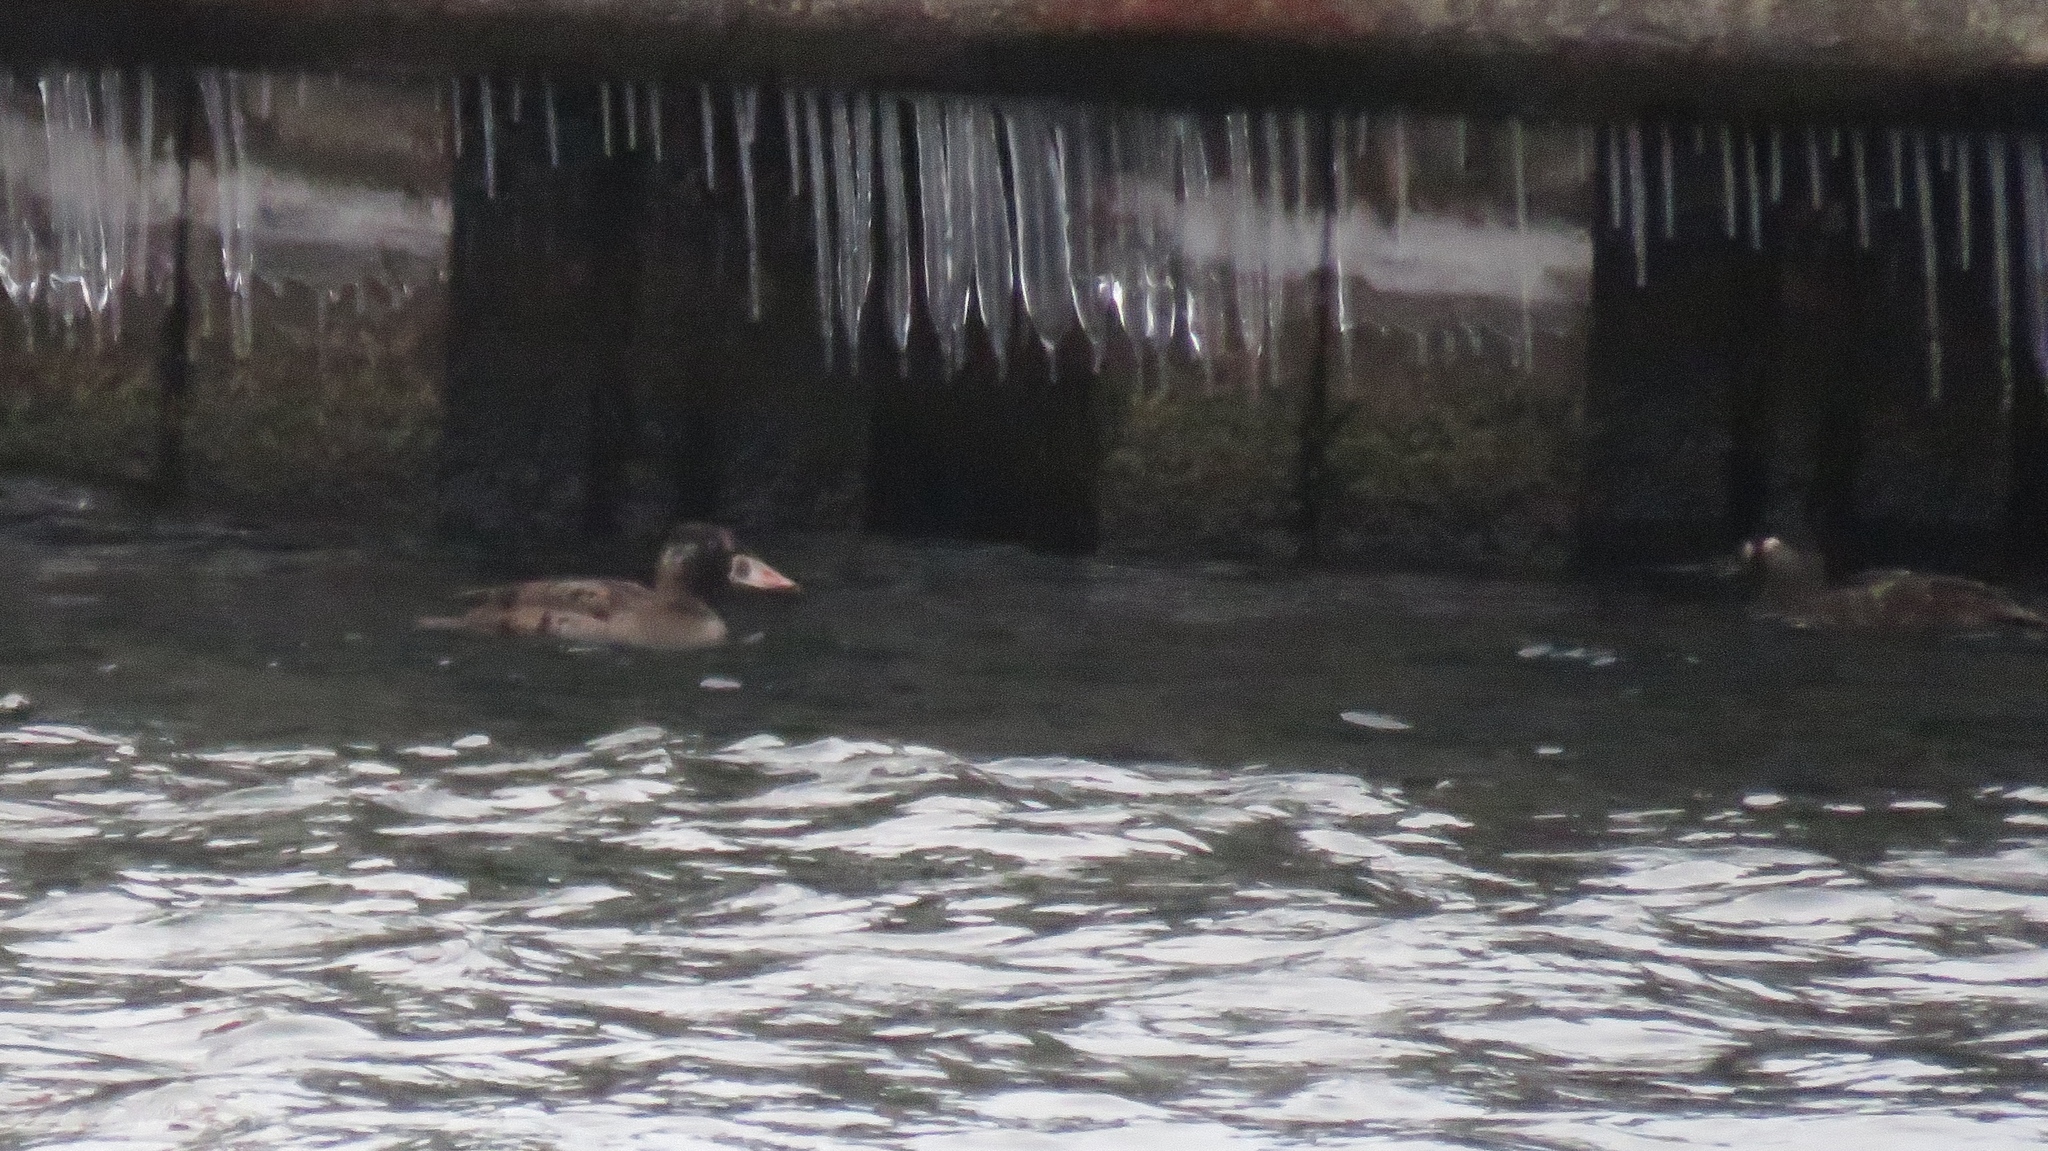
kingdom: Animalia
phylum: Chordata
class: Aves
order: Anseriformes
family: Anatidae
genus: Melanitta
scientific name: Melanitta perspicillata
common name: Surf scoter
